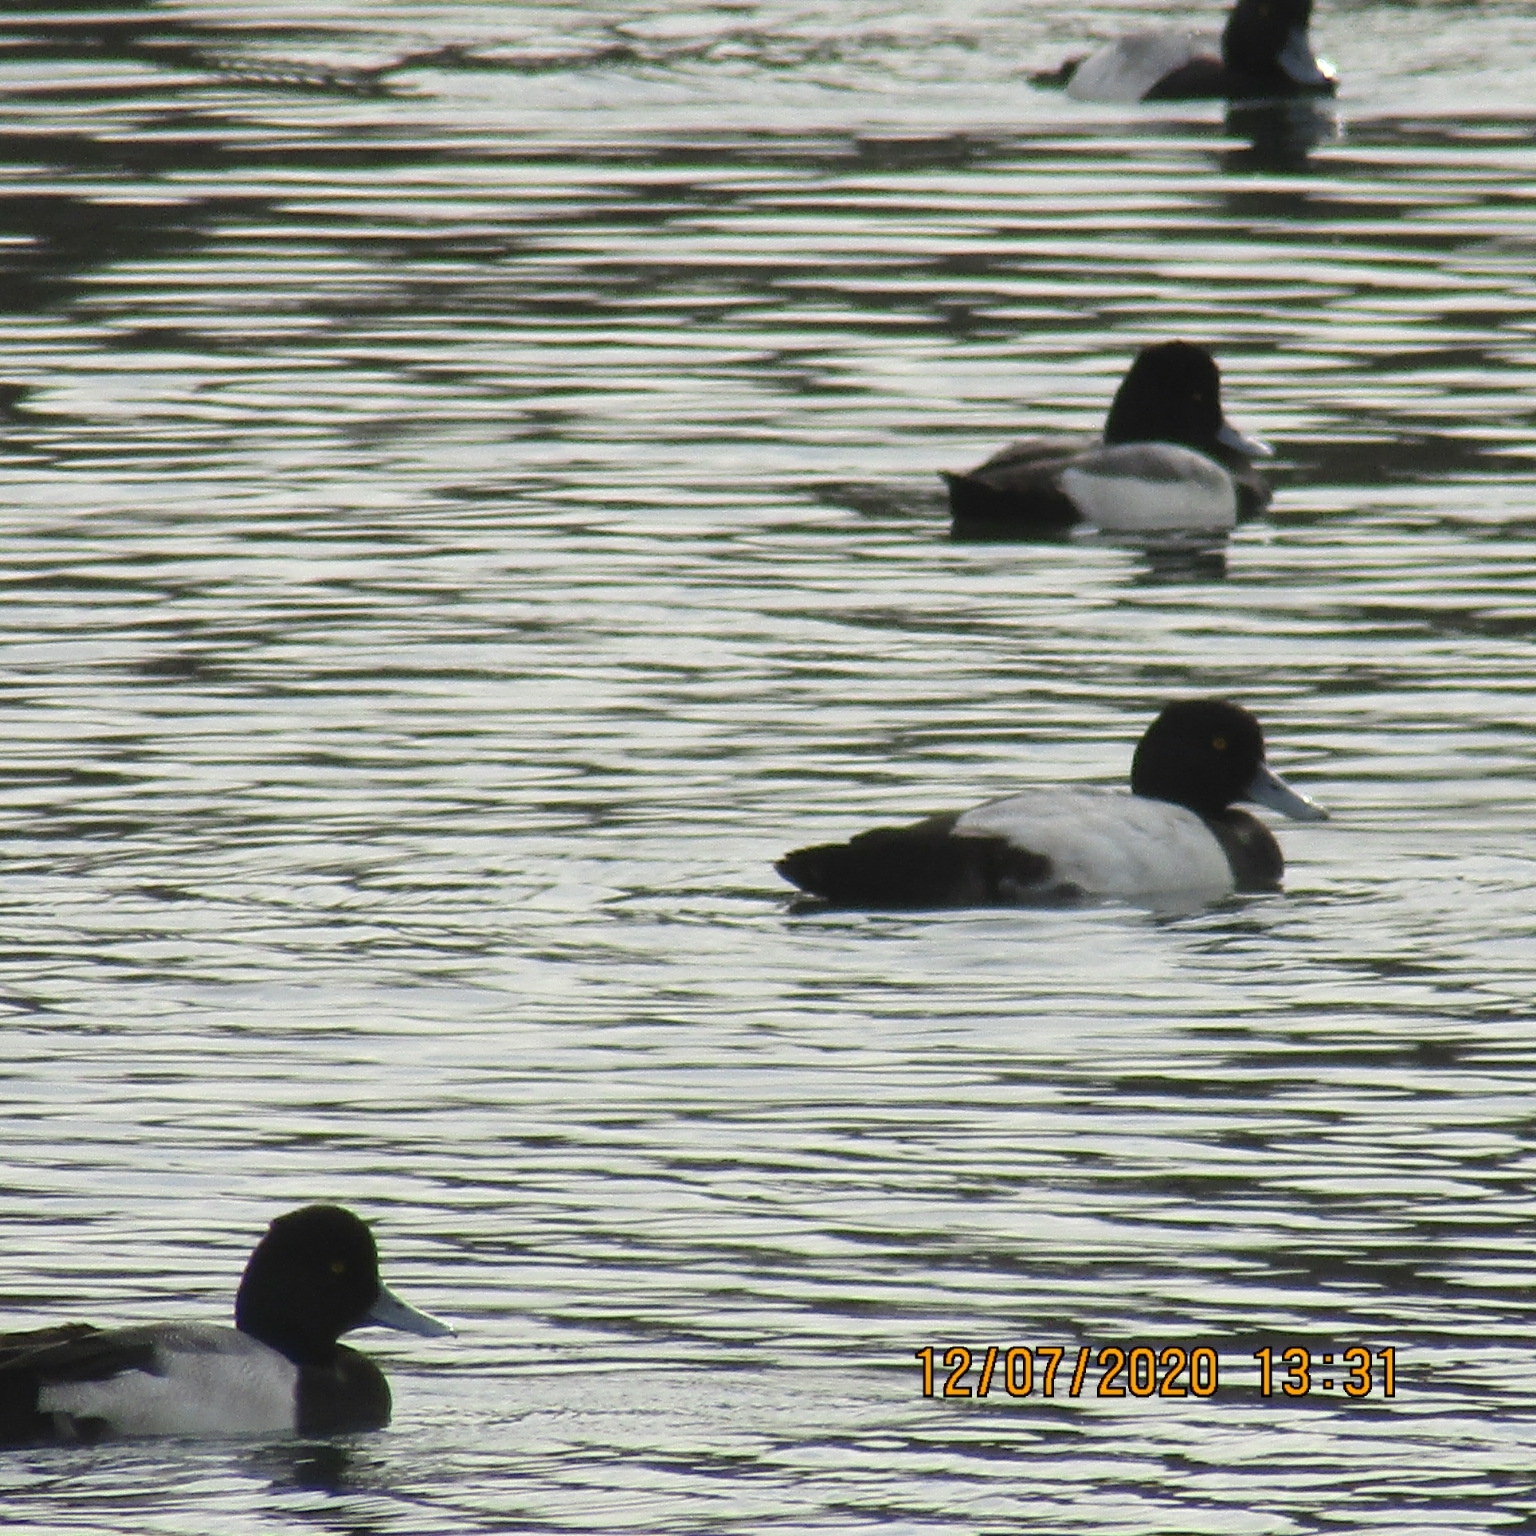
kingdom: Animalia
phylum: Chordata
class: Aves
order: Anseriformes
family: Anatidae
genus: Aythya
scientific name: Aythya affinis
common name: Lesser scaup
